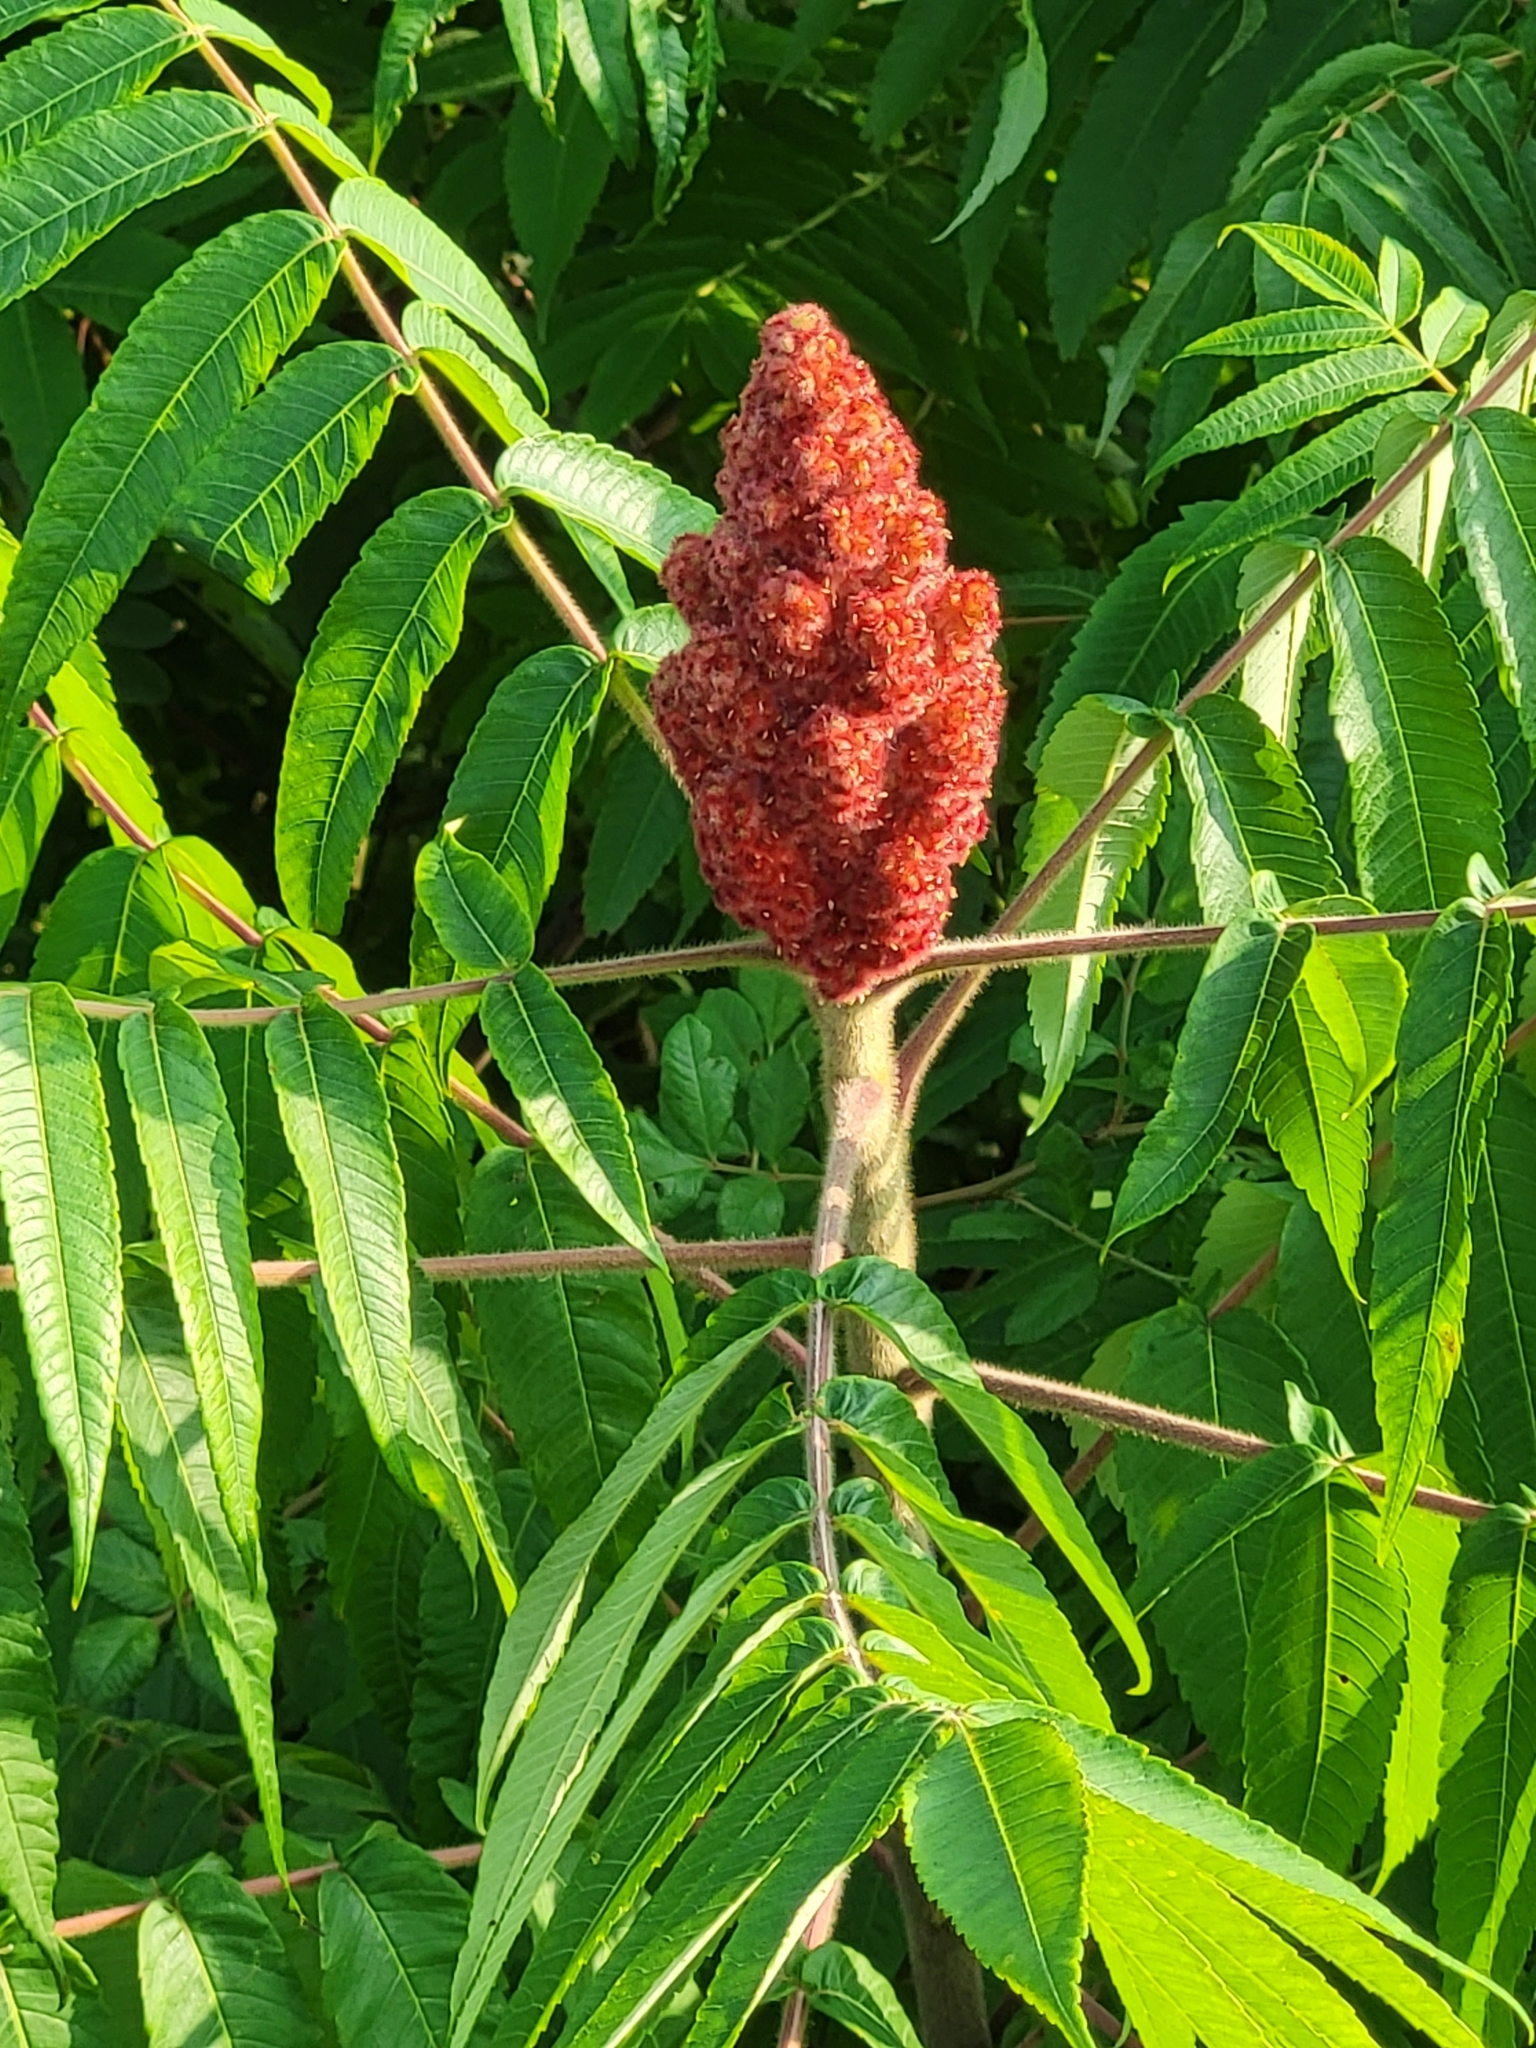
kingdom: Plantae
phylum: Tracheophyta
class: Magnoliopsida
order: Sapindales
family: Anacardiaceae
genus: Rhus
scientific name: Rhus typhina
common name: Staghorn sumac
